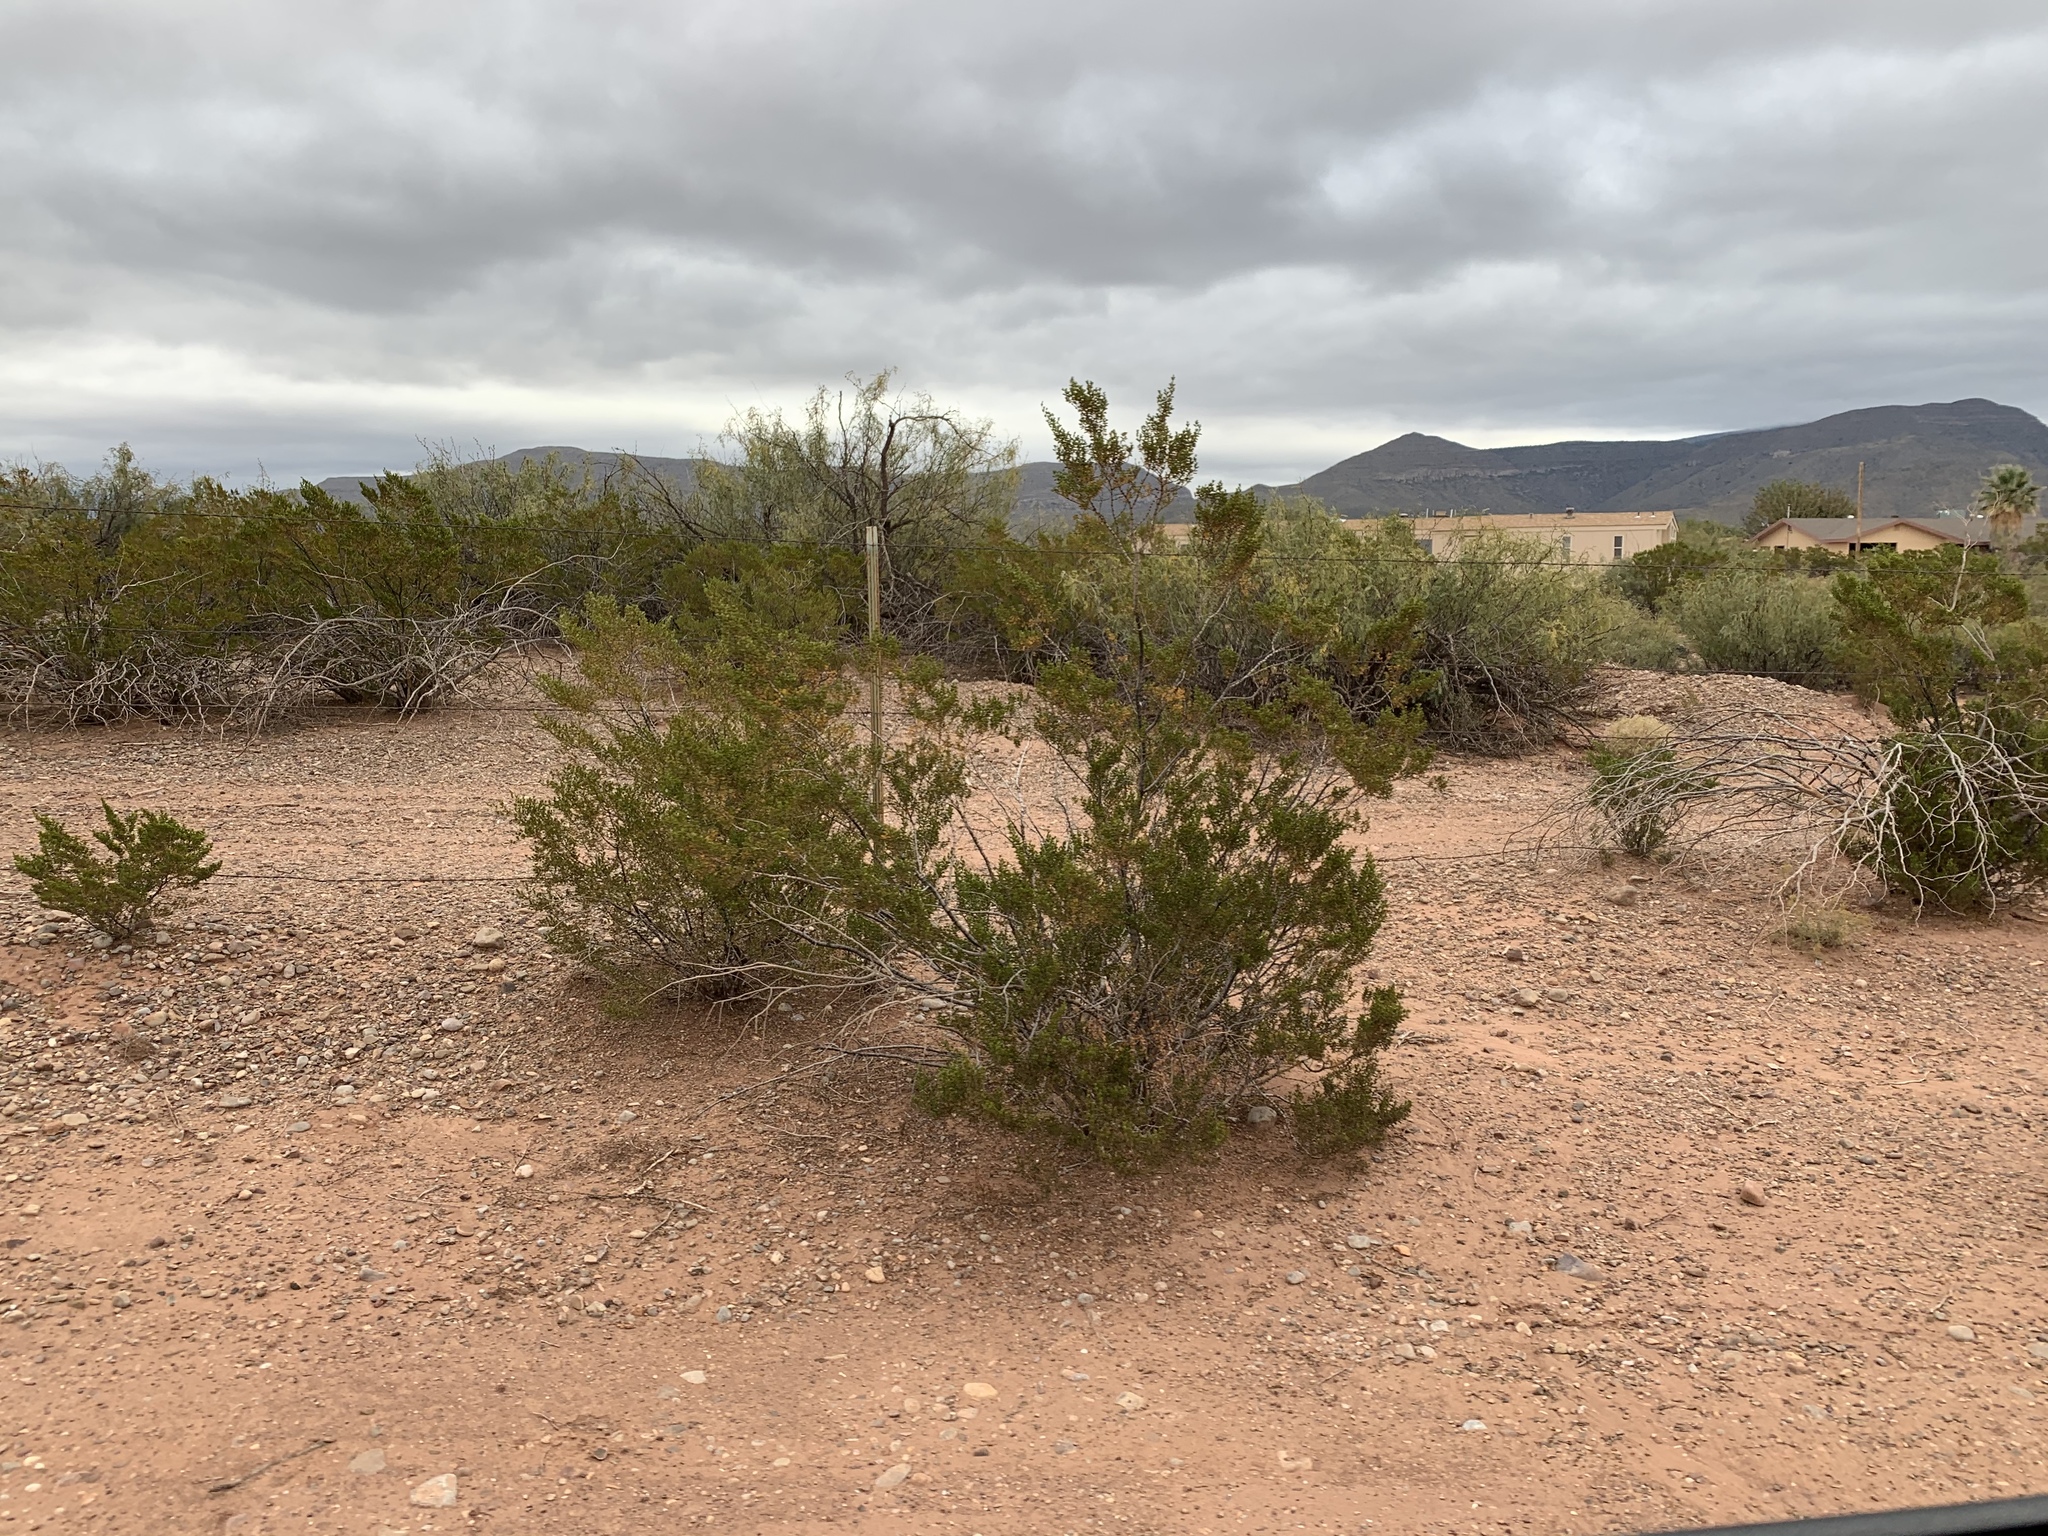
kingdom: Plantae
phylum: Tracheophyta
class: Magnoliopsida
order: Zygophyllales
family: Zygophyllaceae
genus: Larrea
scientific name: Larrea tridentata
